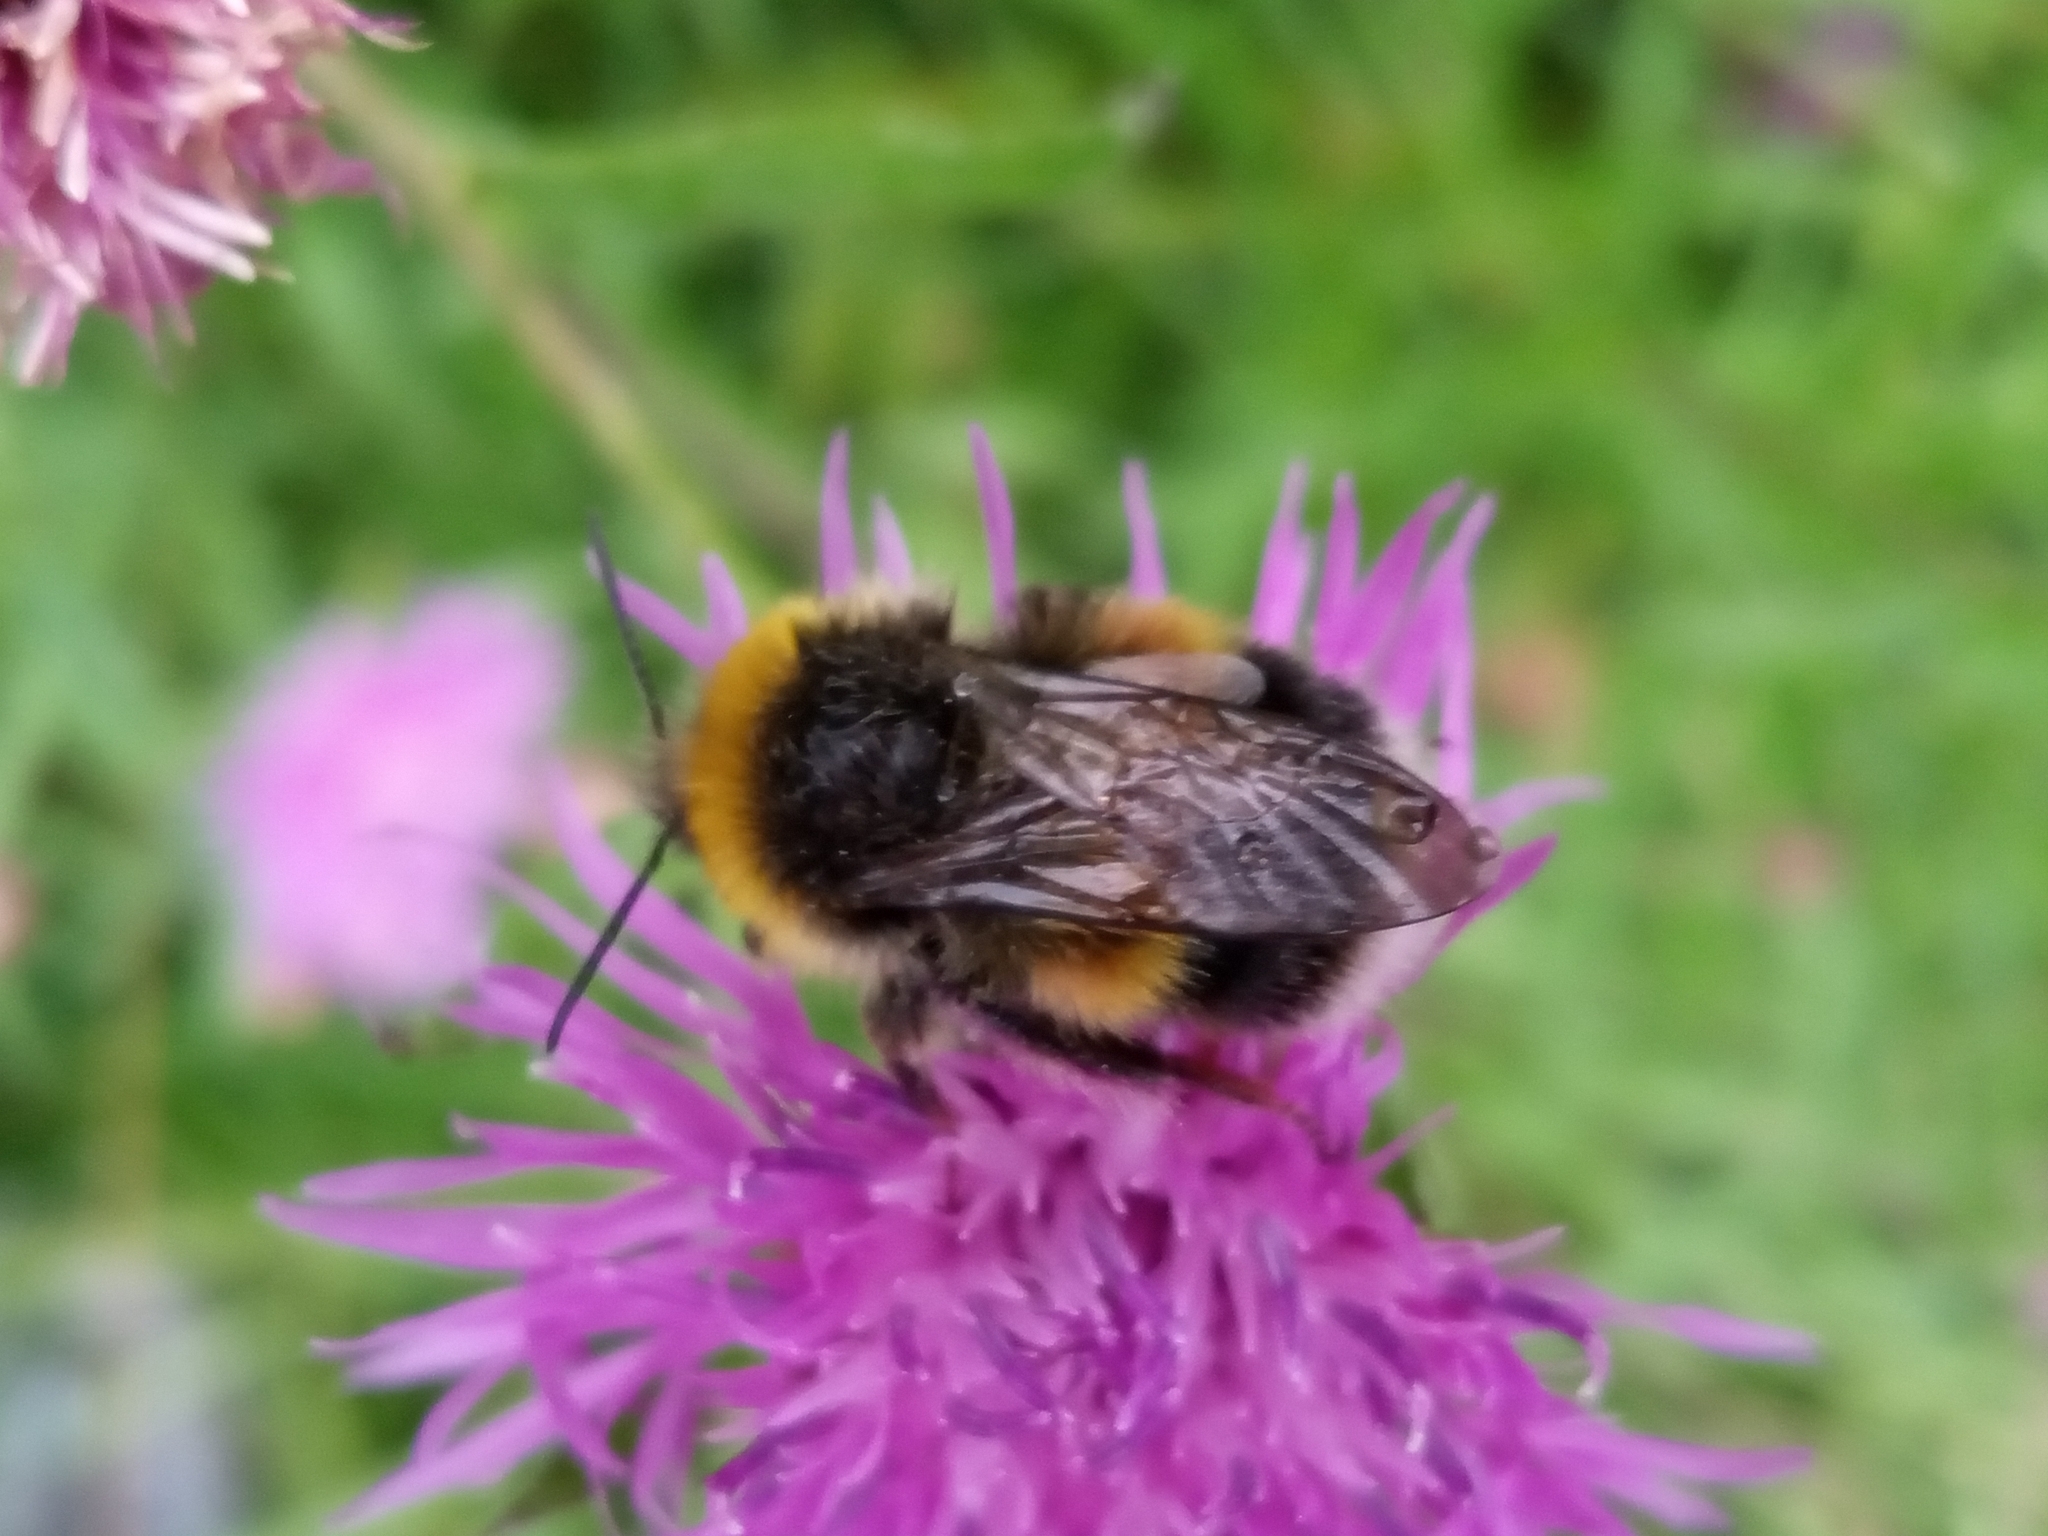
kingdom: Animalia
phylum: Arthropoda
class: Insecta
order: Hymenoptera
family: Apidae
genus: Bombus
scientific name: Bombus lucorum
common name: White-tailed bumblebee
